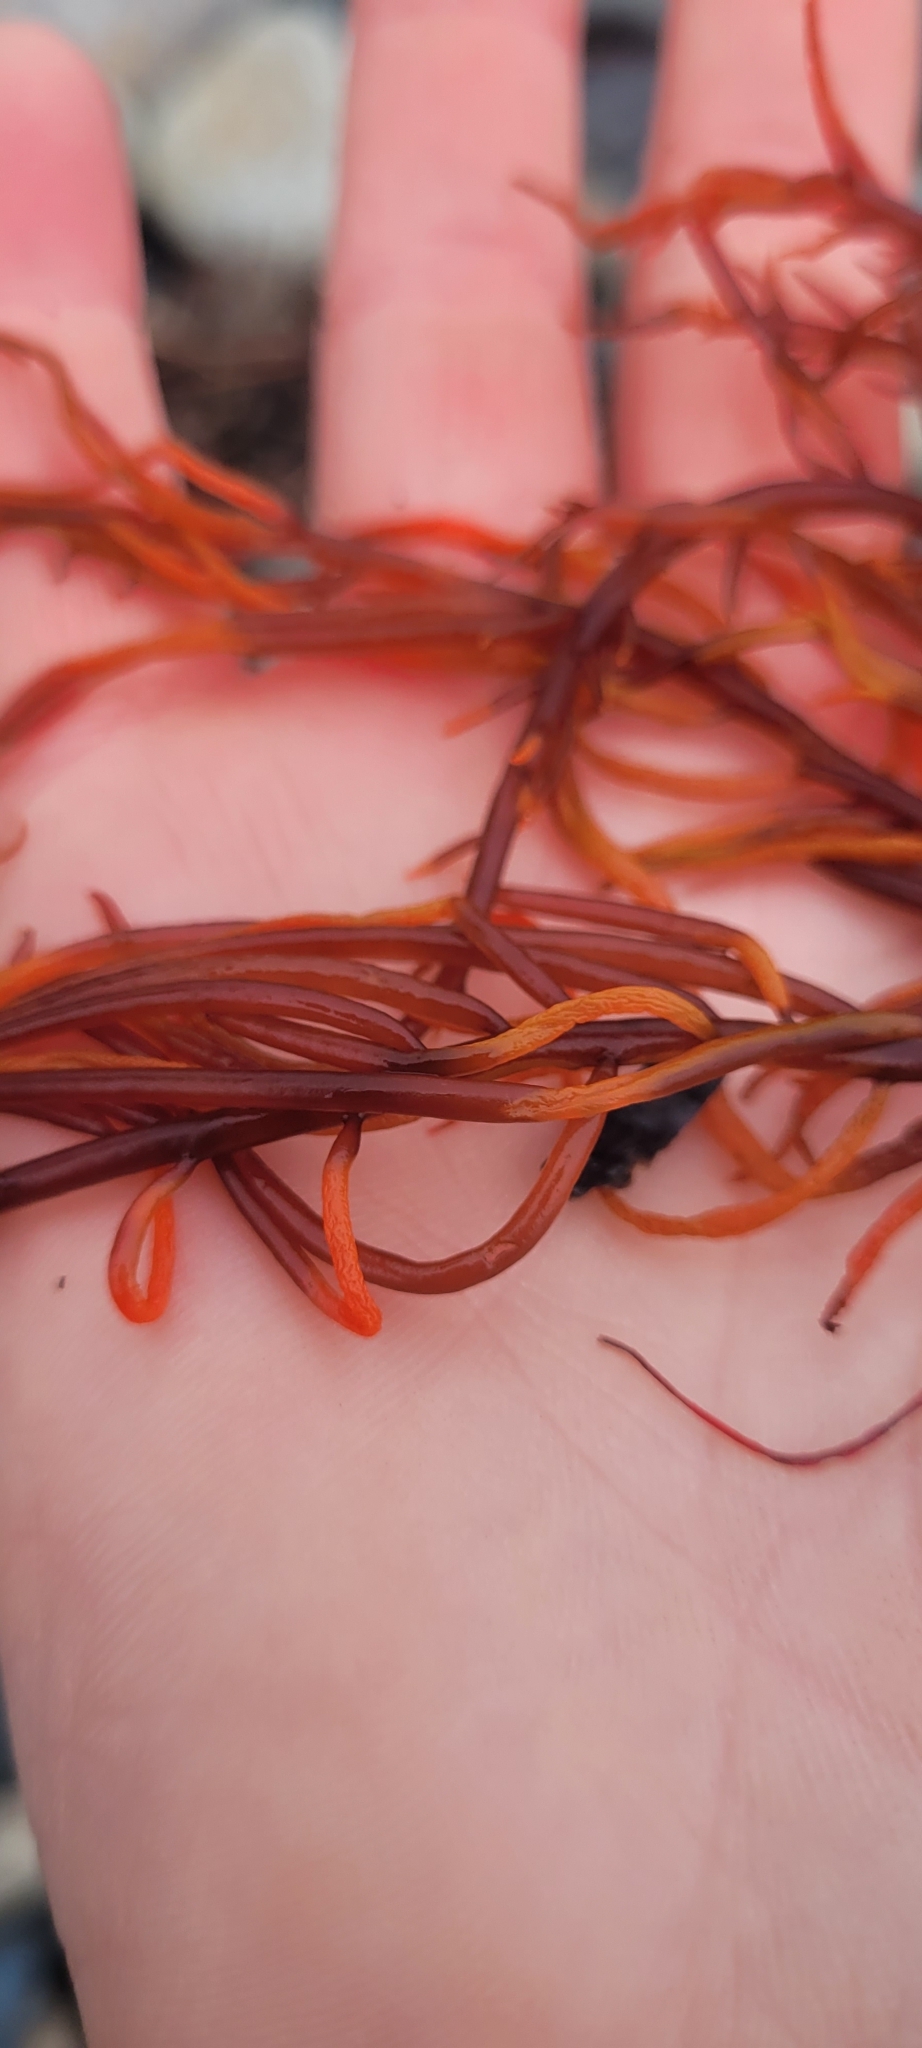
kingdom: Plantae
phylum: Rhodophyta
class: Florideophyceae
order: Gigartinales
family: Solieriaceae
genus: Sarcodiotheca
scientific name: Sarcodiotheca gaudichaudii
